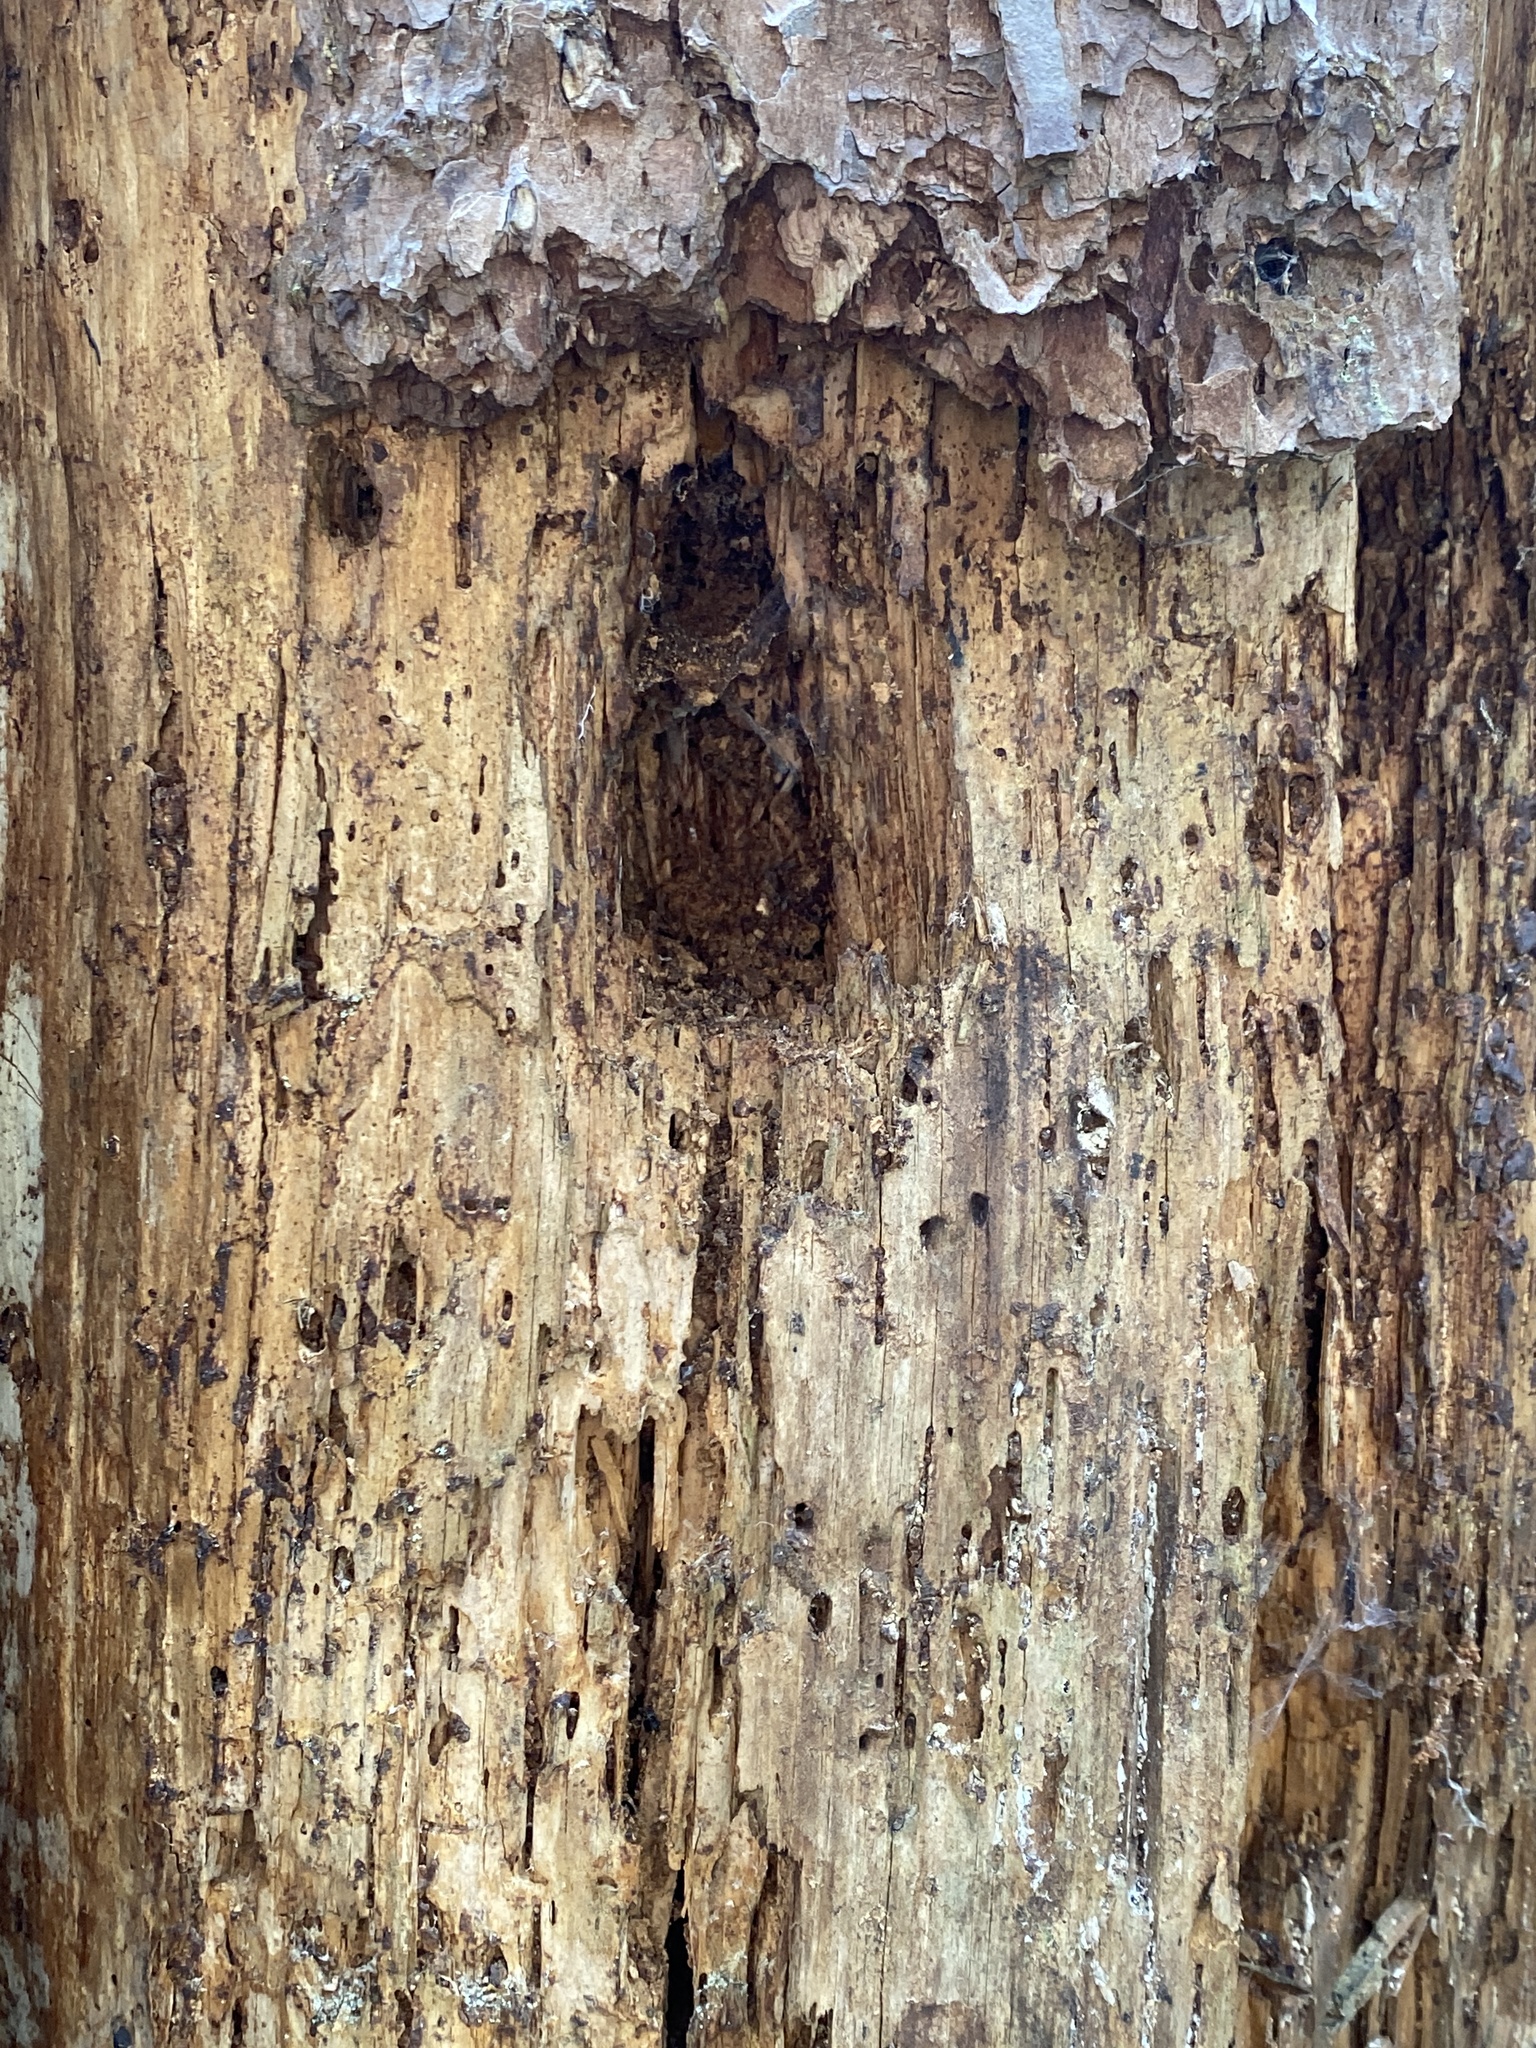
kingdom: Animalia
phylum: Chordata
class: Aves
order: Piciformes
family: Picidae
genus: Dryocopus
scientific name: Dryocopus pileatus
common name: Pileated woodpecker
